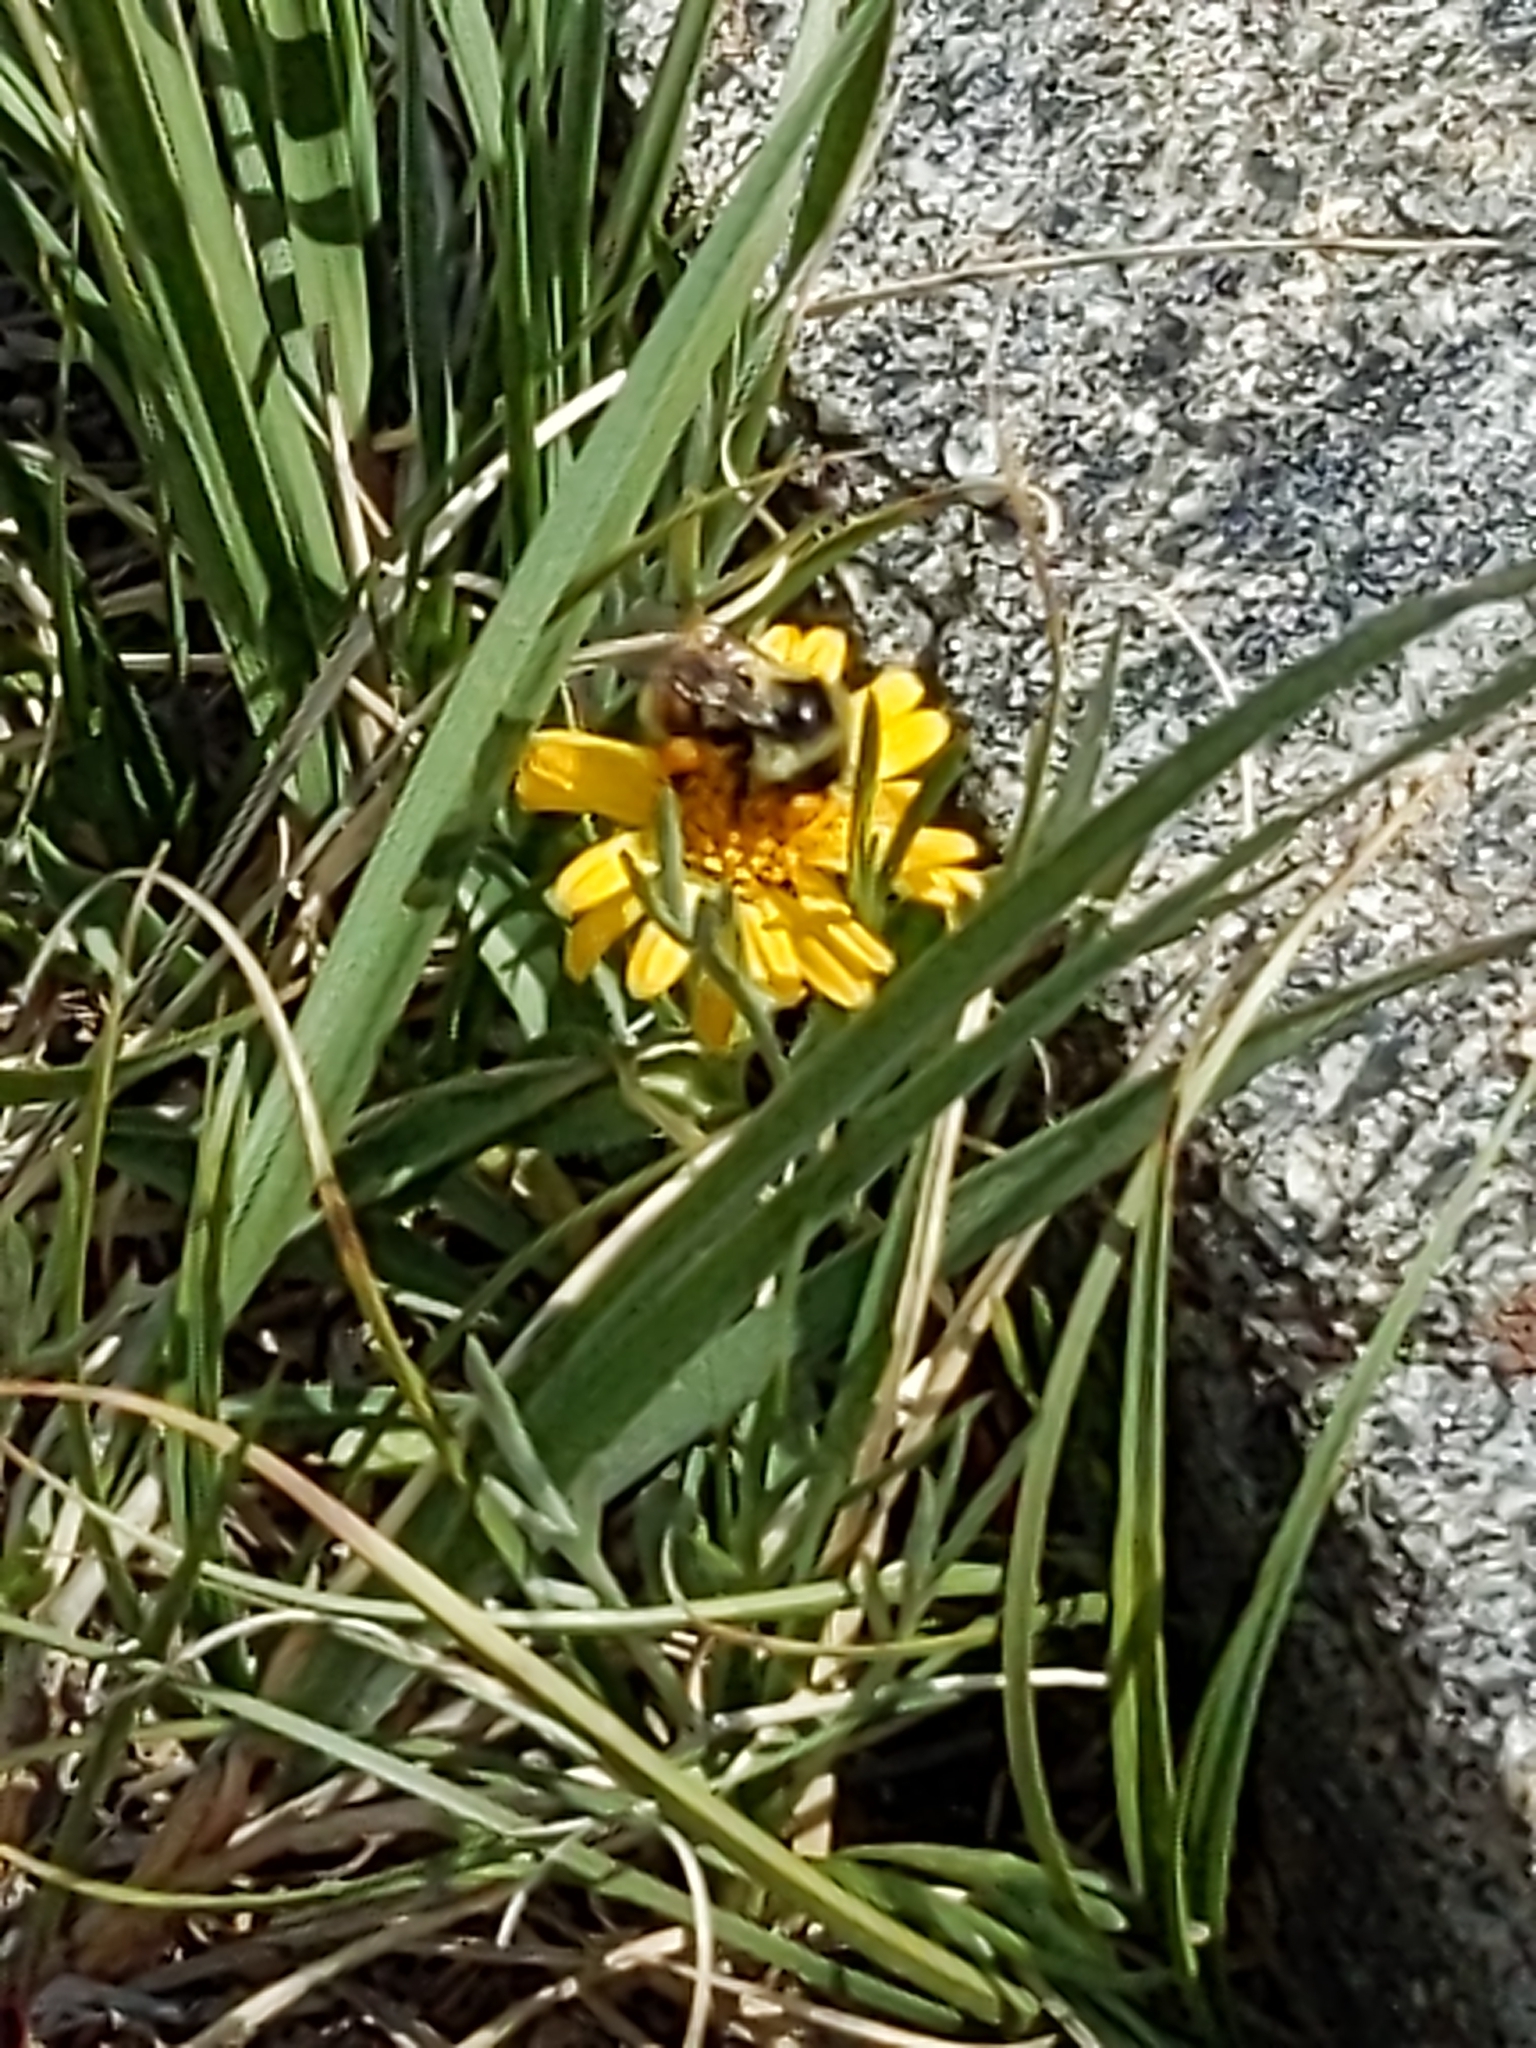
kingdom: Animalia
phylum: Arthropoda
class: Insecta
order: Hymenoptera
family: Apidae
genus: Bombus
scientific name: Bombus bifarius
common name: Two form bumble bee
